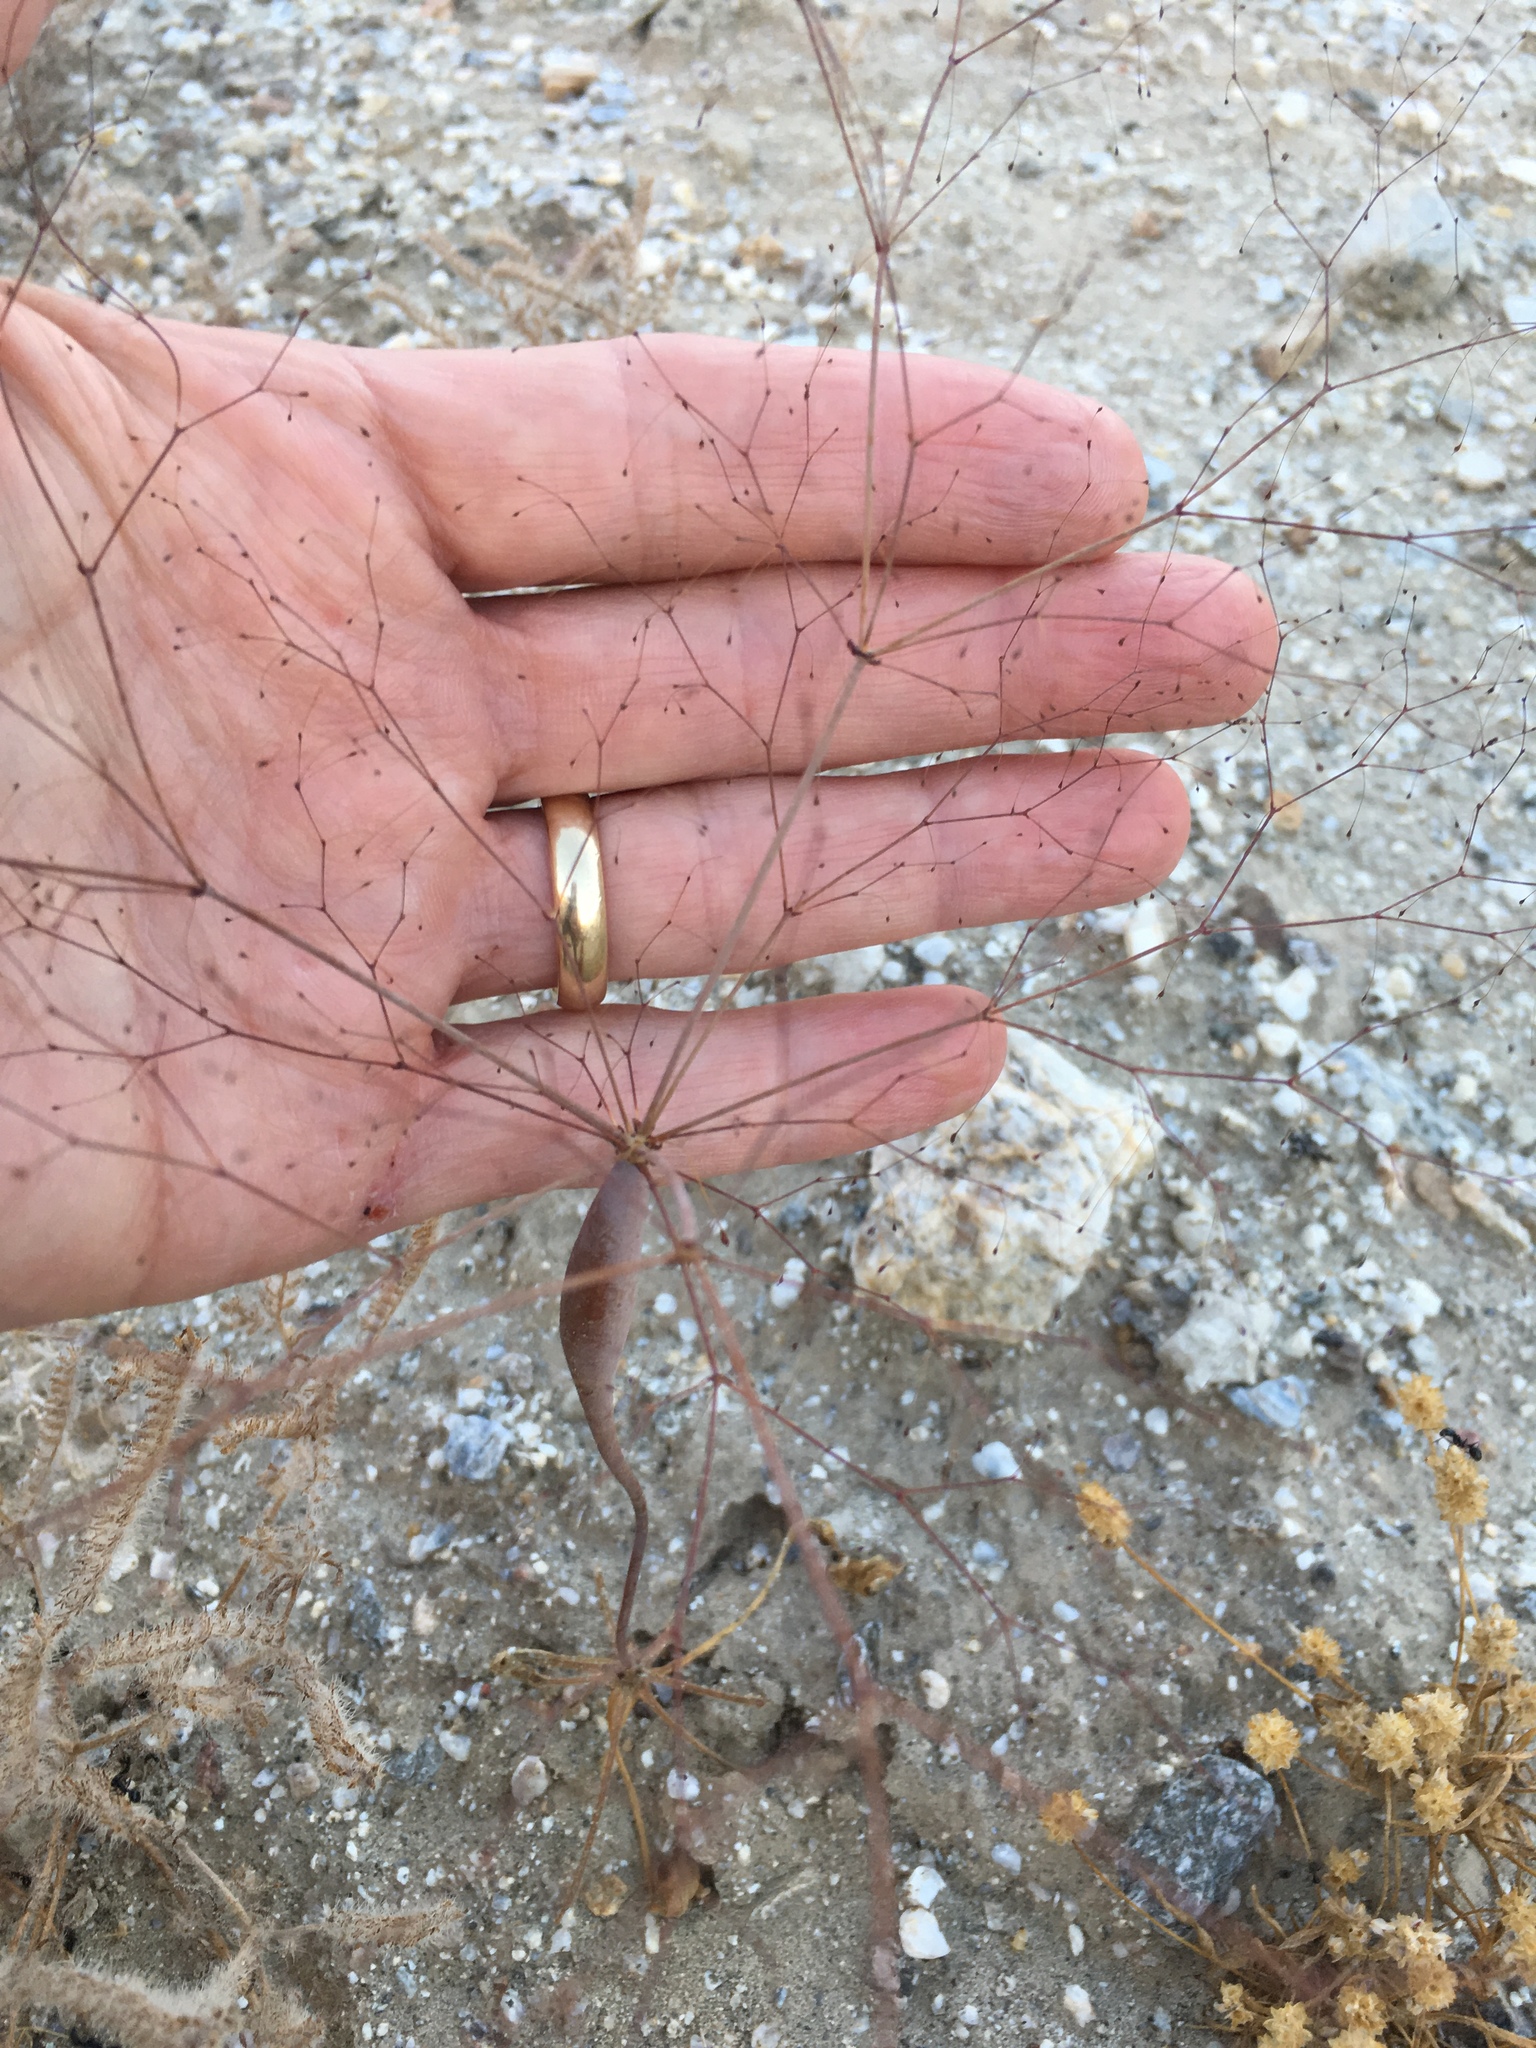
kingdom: Plantae
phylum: Tracheophyta
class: Magnoliopsida
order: Caryophyllales
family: Polygonaceae
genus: Eriogonum
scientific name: Eriogonum trichopes
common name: Little desert trumpet
